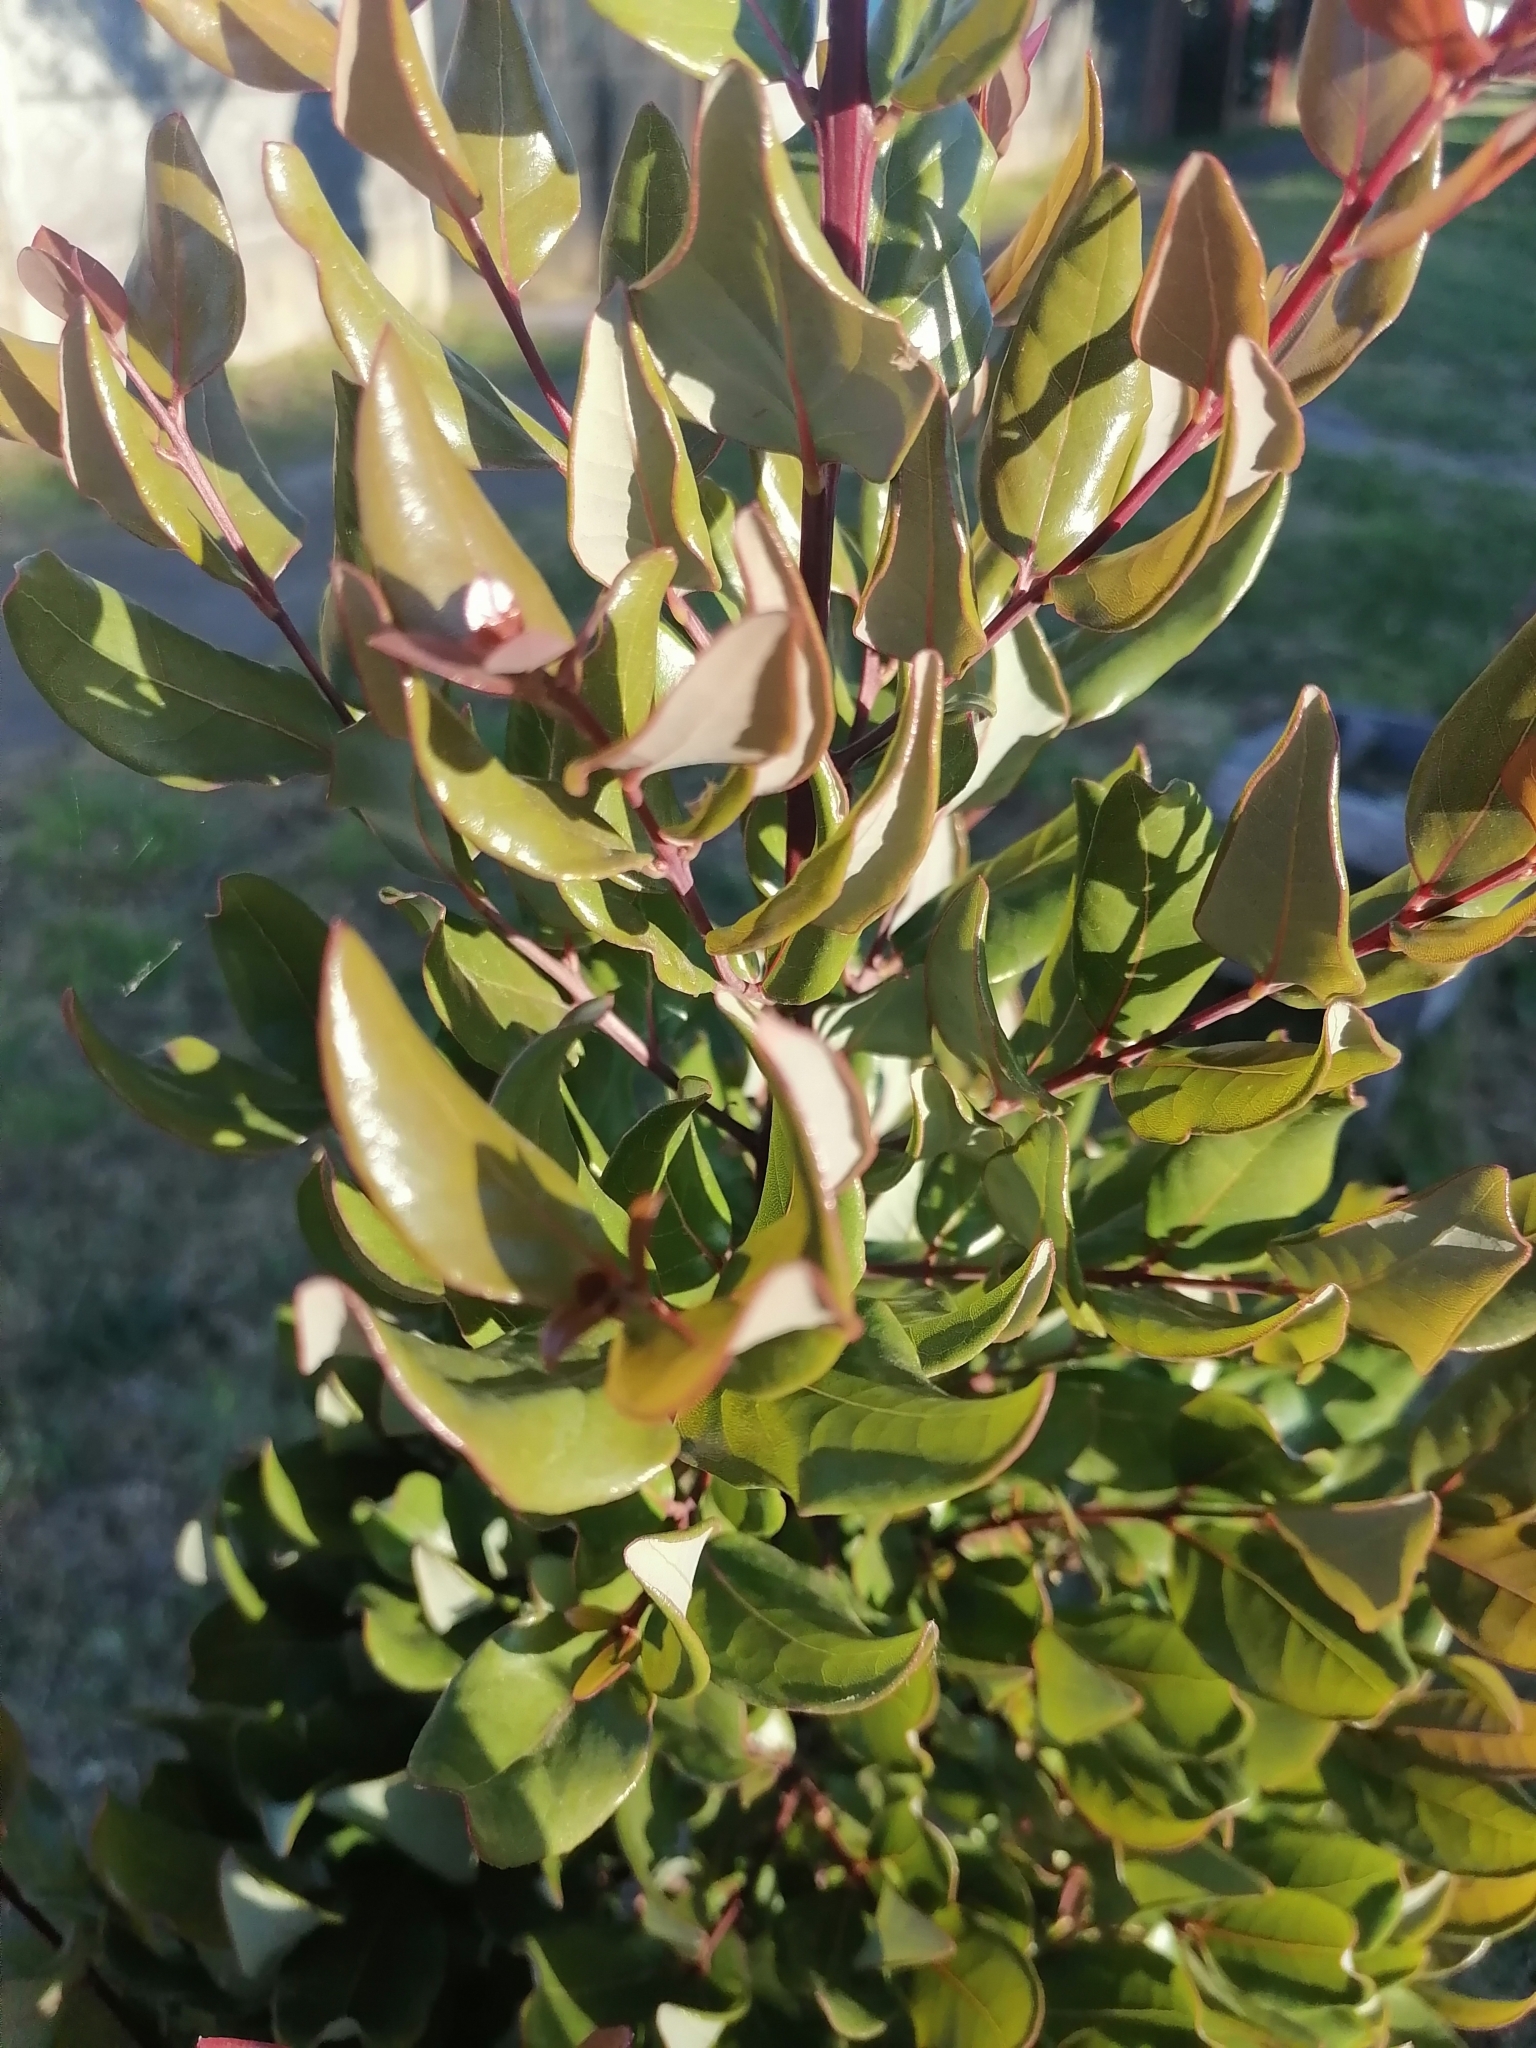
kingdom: Plantae
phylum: Tracheophyta
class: Magnoliopsida
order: Laurales
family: Lauraceae
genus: Cryptocarya
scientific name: Cryptocarya alba
